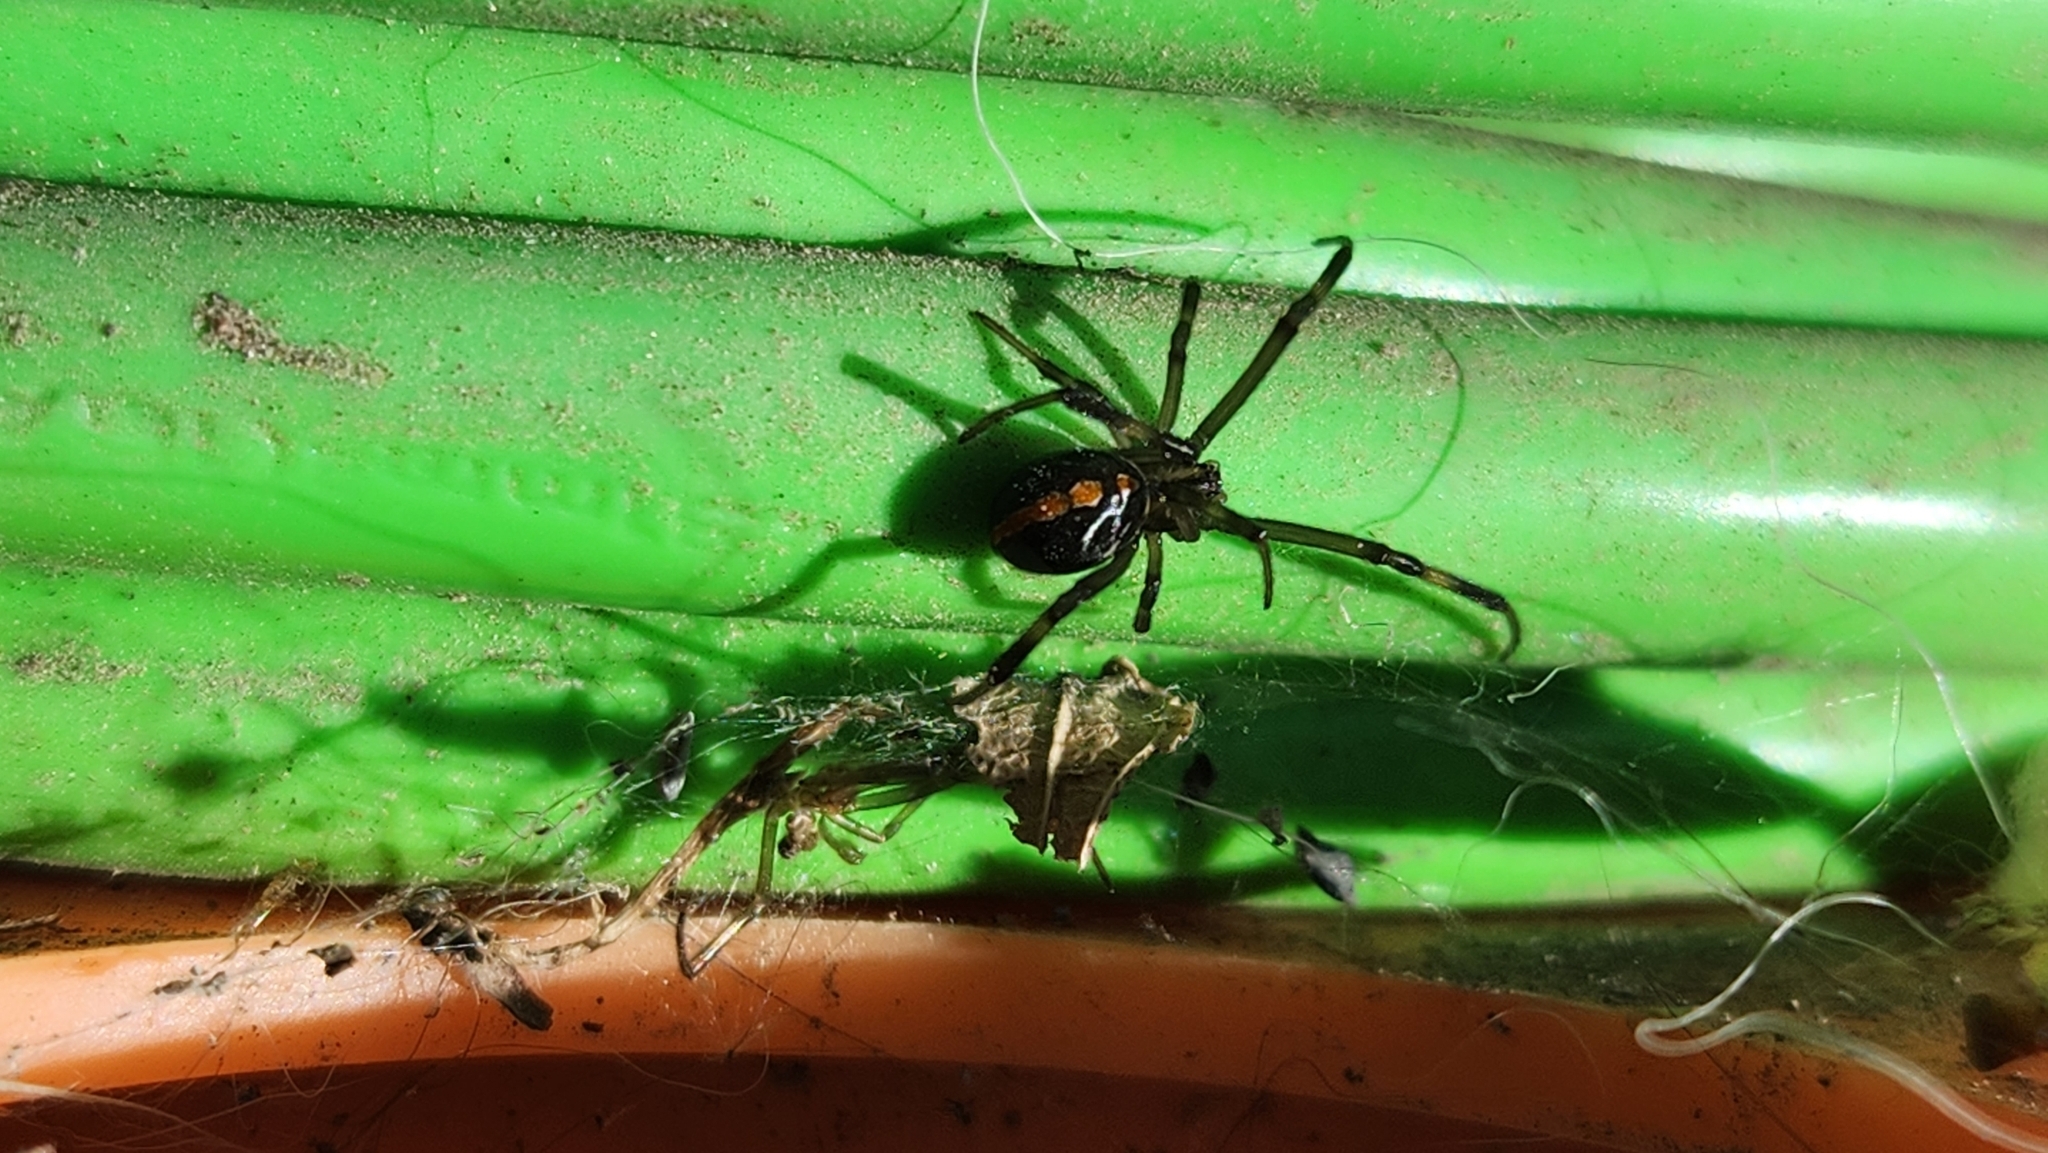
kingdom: Animalia
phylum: Arthropoda
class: Arachnida
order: Araneae
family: Theridiidae
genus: Latrodectus
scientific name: Latrodectus hesperus
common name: Western black widow
